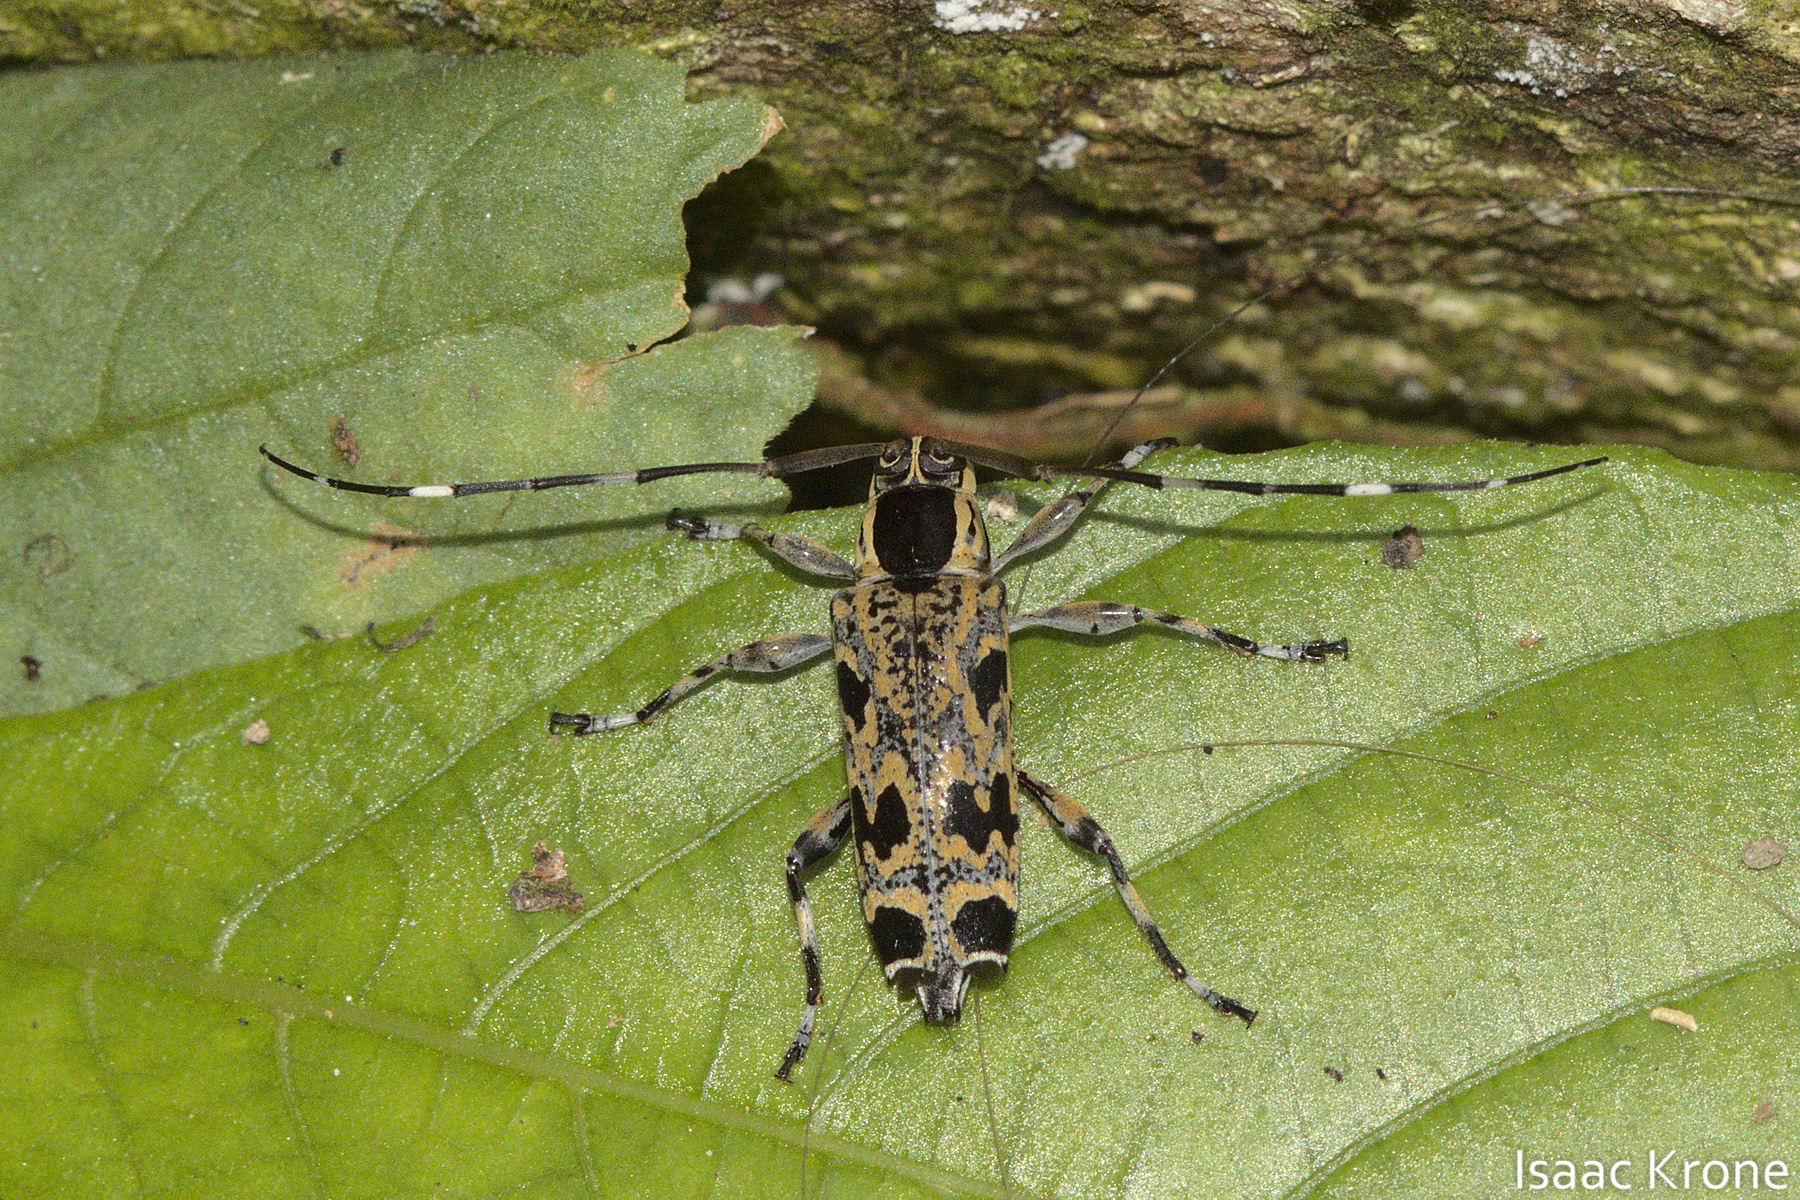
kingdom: Animalia
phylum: Arthropoda
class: Insecta
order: Coleoptera
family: Cerambycidae
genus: Colobothea
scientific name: Colobothea macularis
